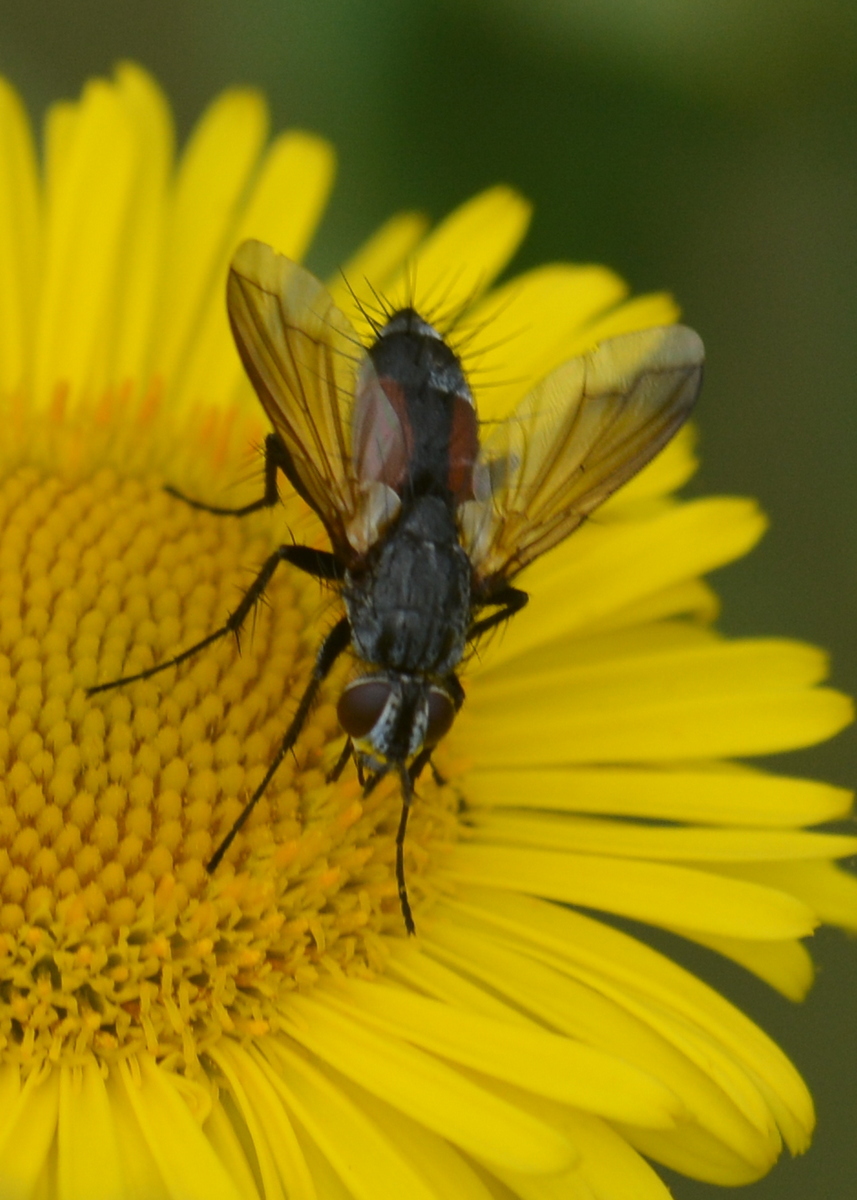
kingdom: Animalia
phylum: Arthropoda
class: Insecta
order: Diptera
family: Tachinidae
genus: Eriothrix
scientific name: Eriothrix rufomaculatus
